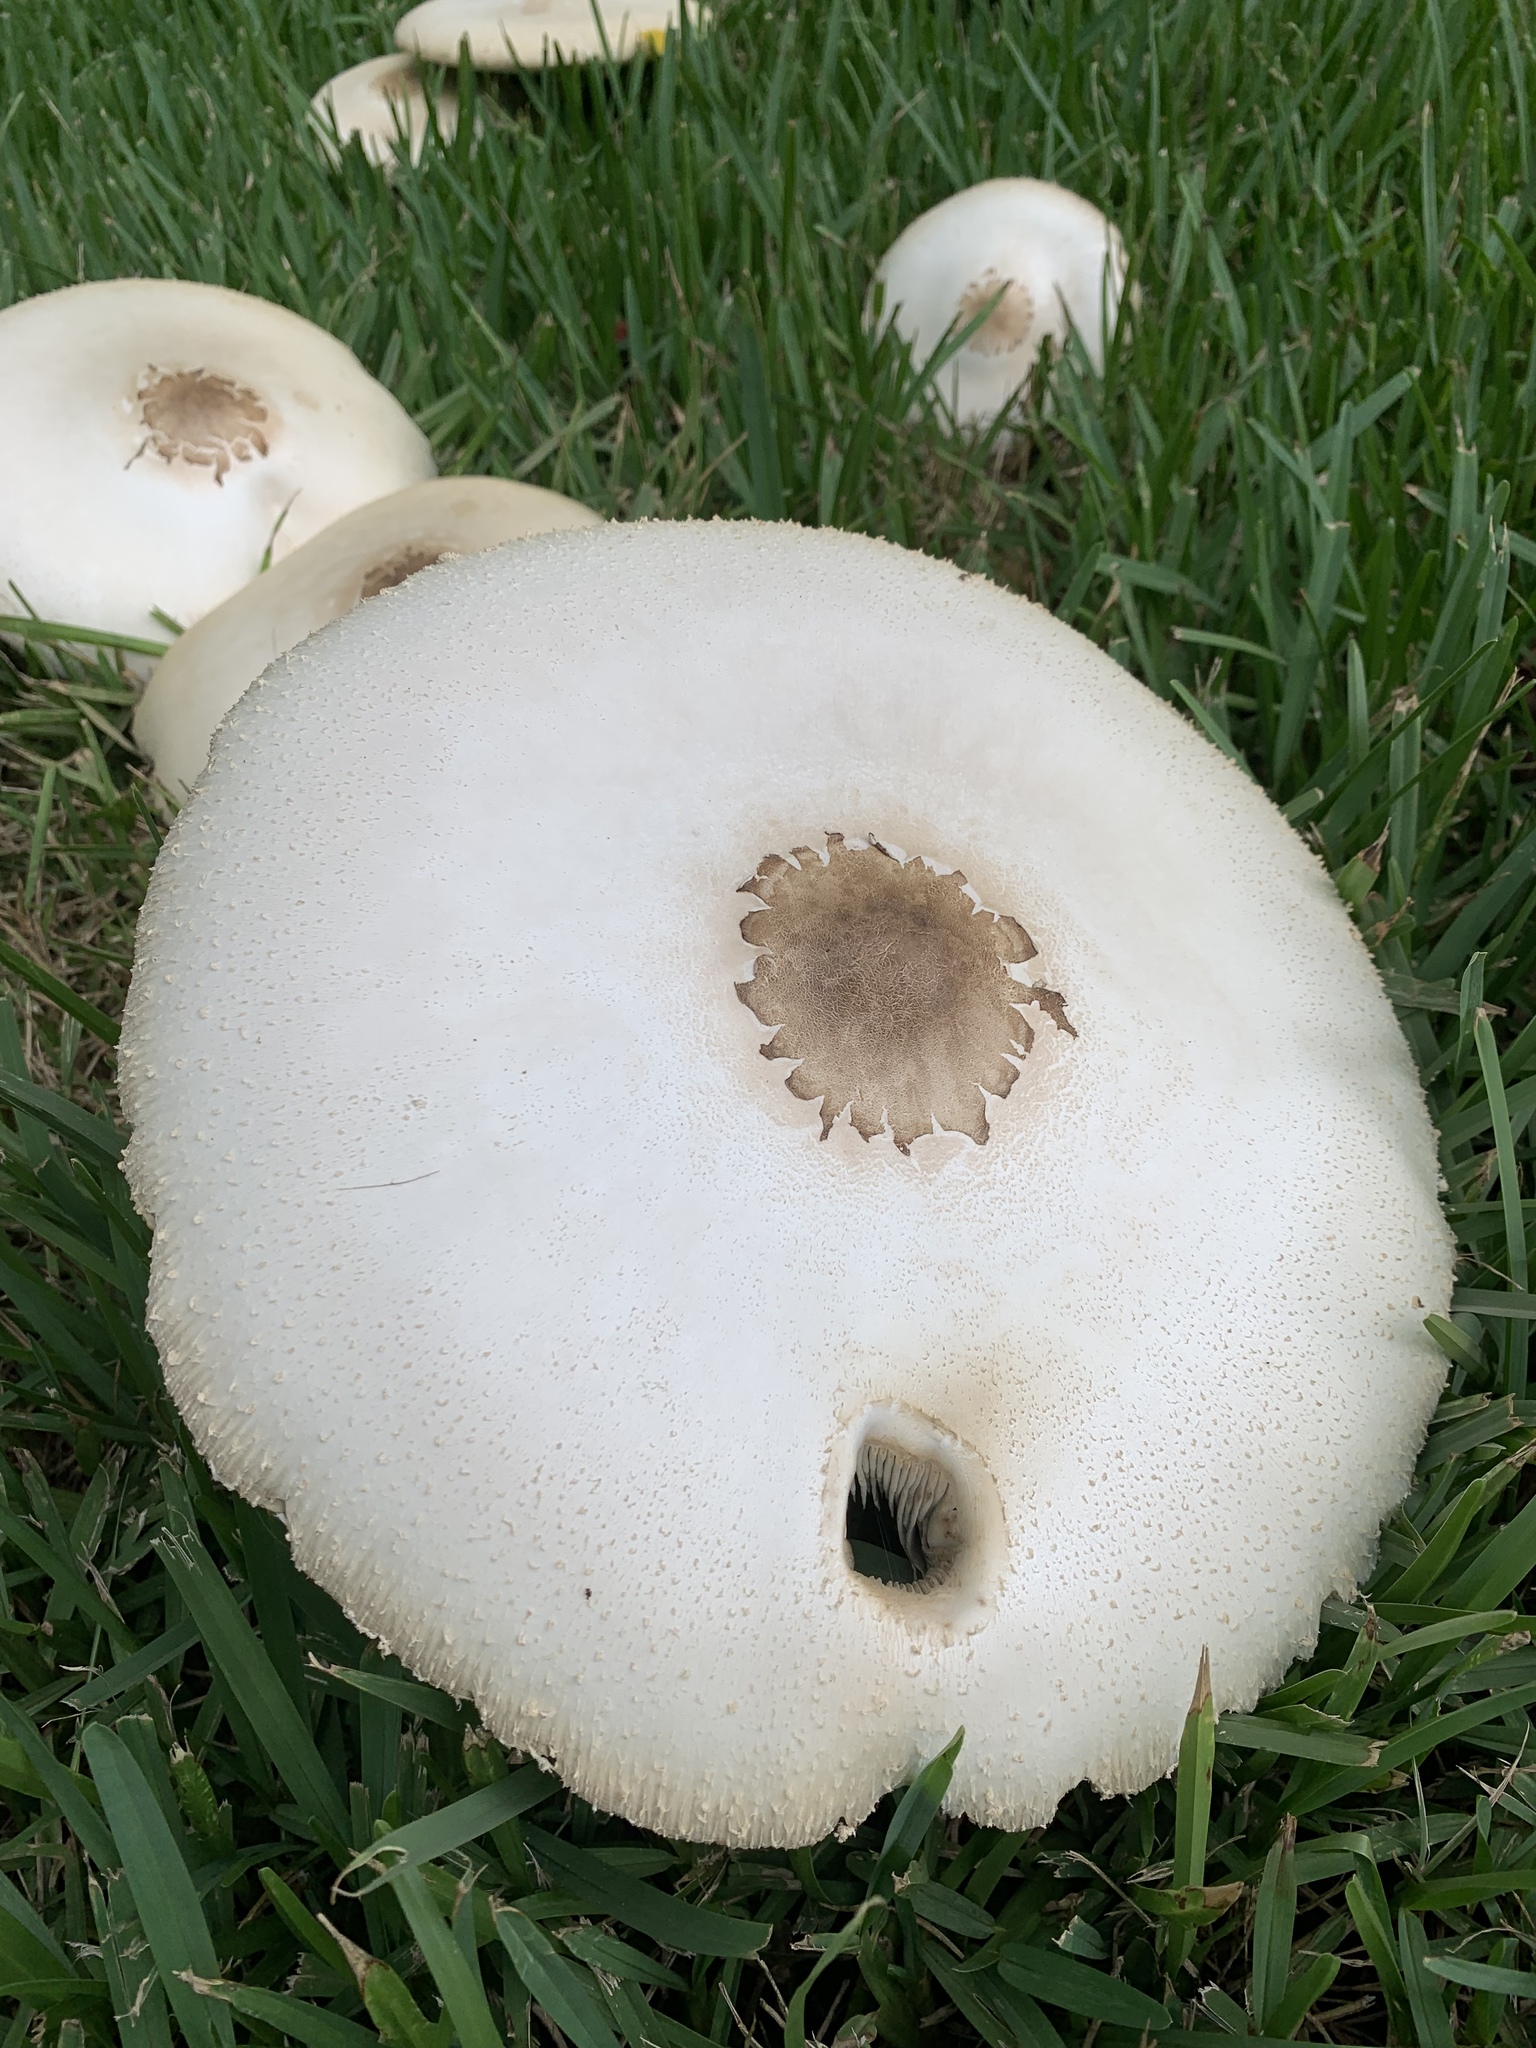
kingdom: Fungi
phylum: Basidiomycota
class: Agaricomycetes
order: Agaricales
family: Agaricaceae
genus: Chlorophyllum
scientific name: Chlorophyllum molybdites
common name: False parasol
